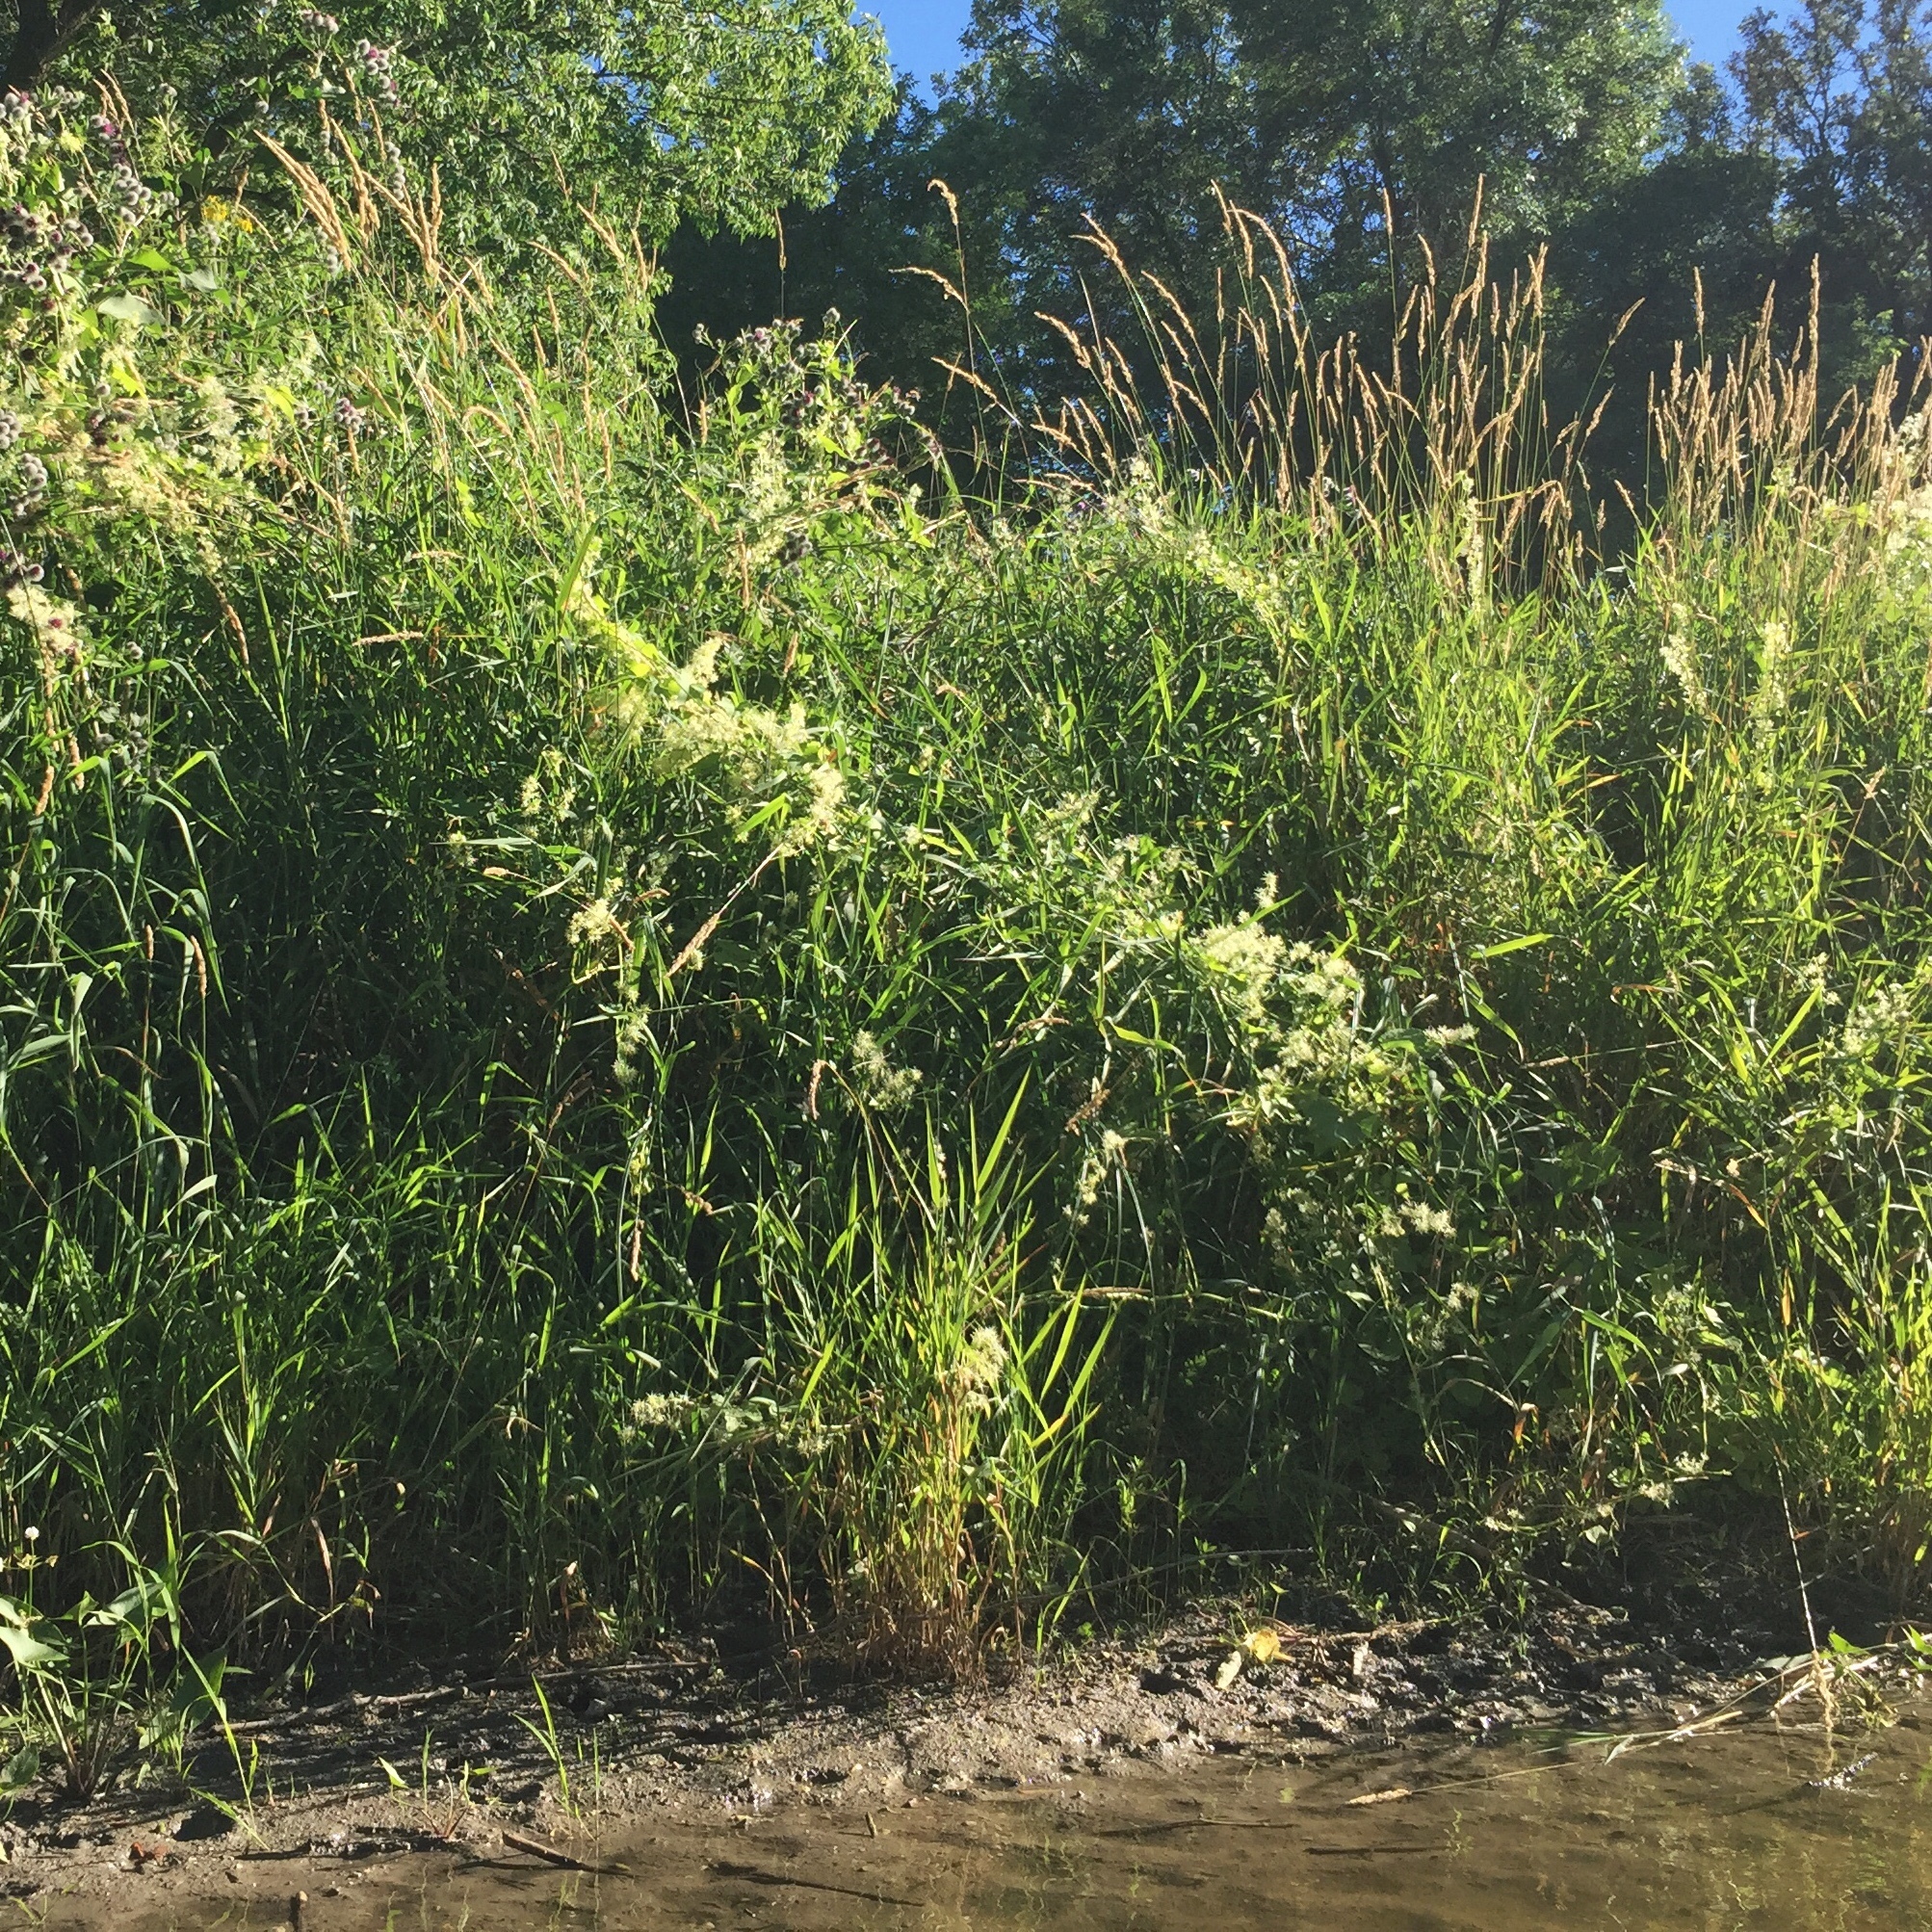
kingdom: Plantae
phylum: Tracheophyta
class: Magnoliopsida
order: Cucurbitales
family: Cucurbitaceae
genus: Echinocystis
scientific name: Echinocystis lobata
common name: Wild cucumber
